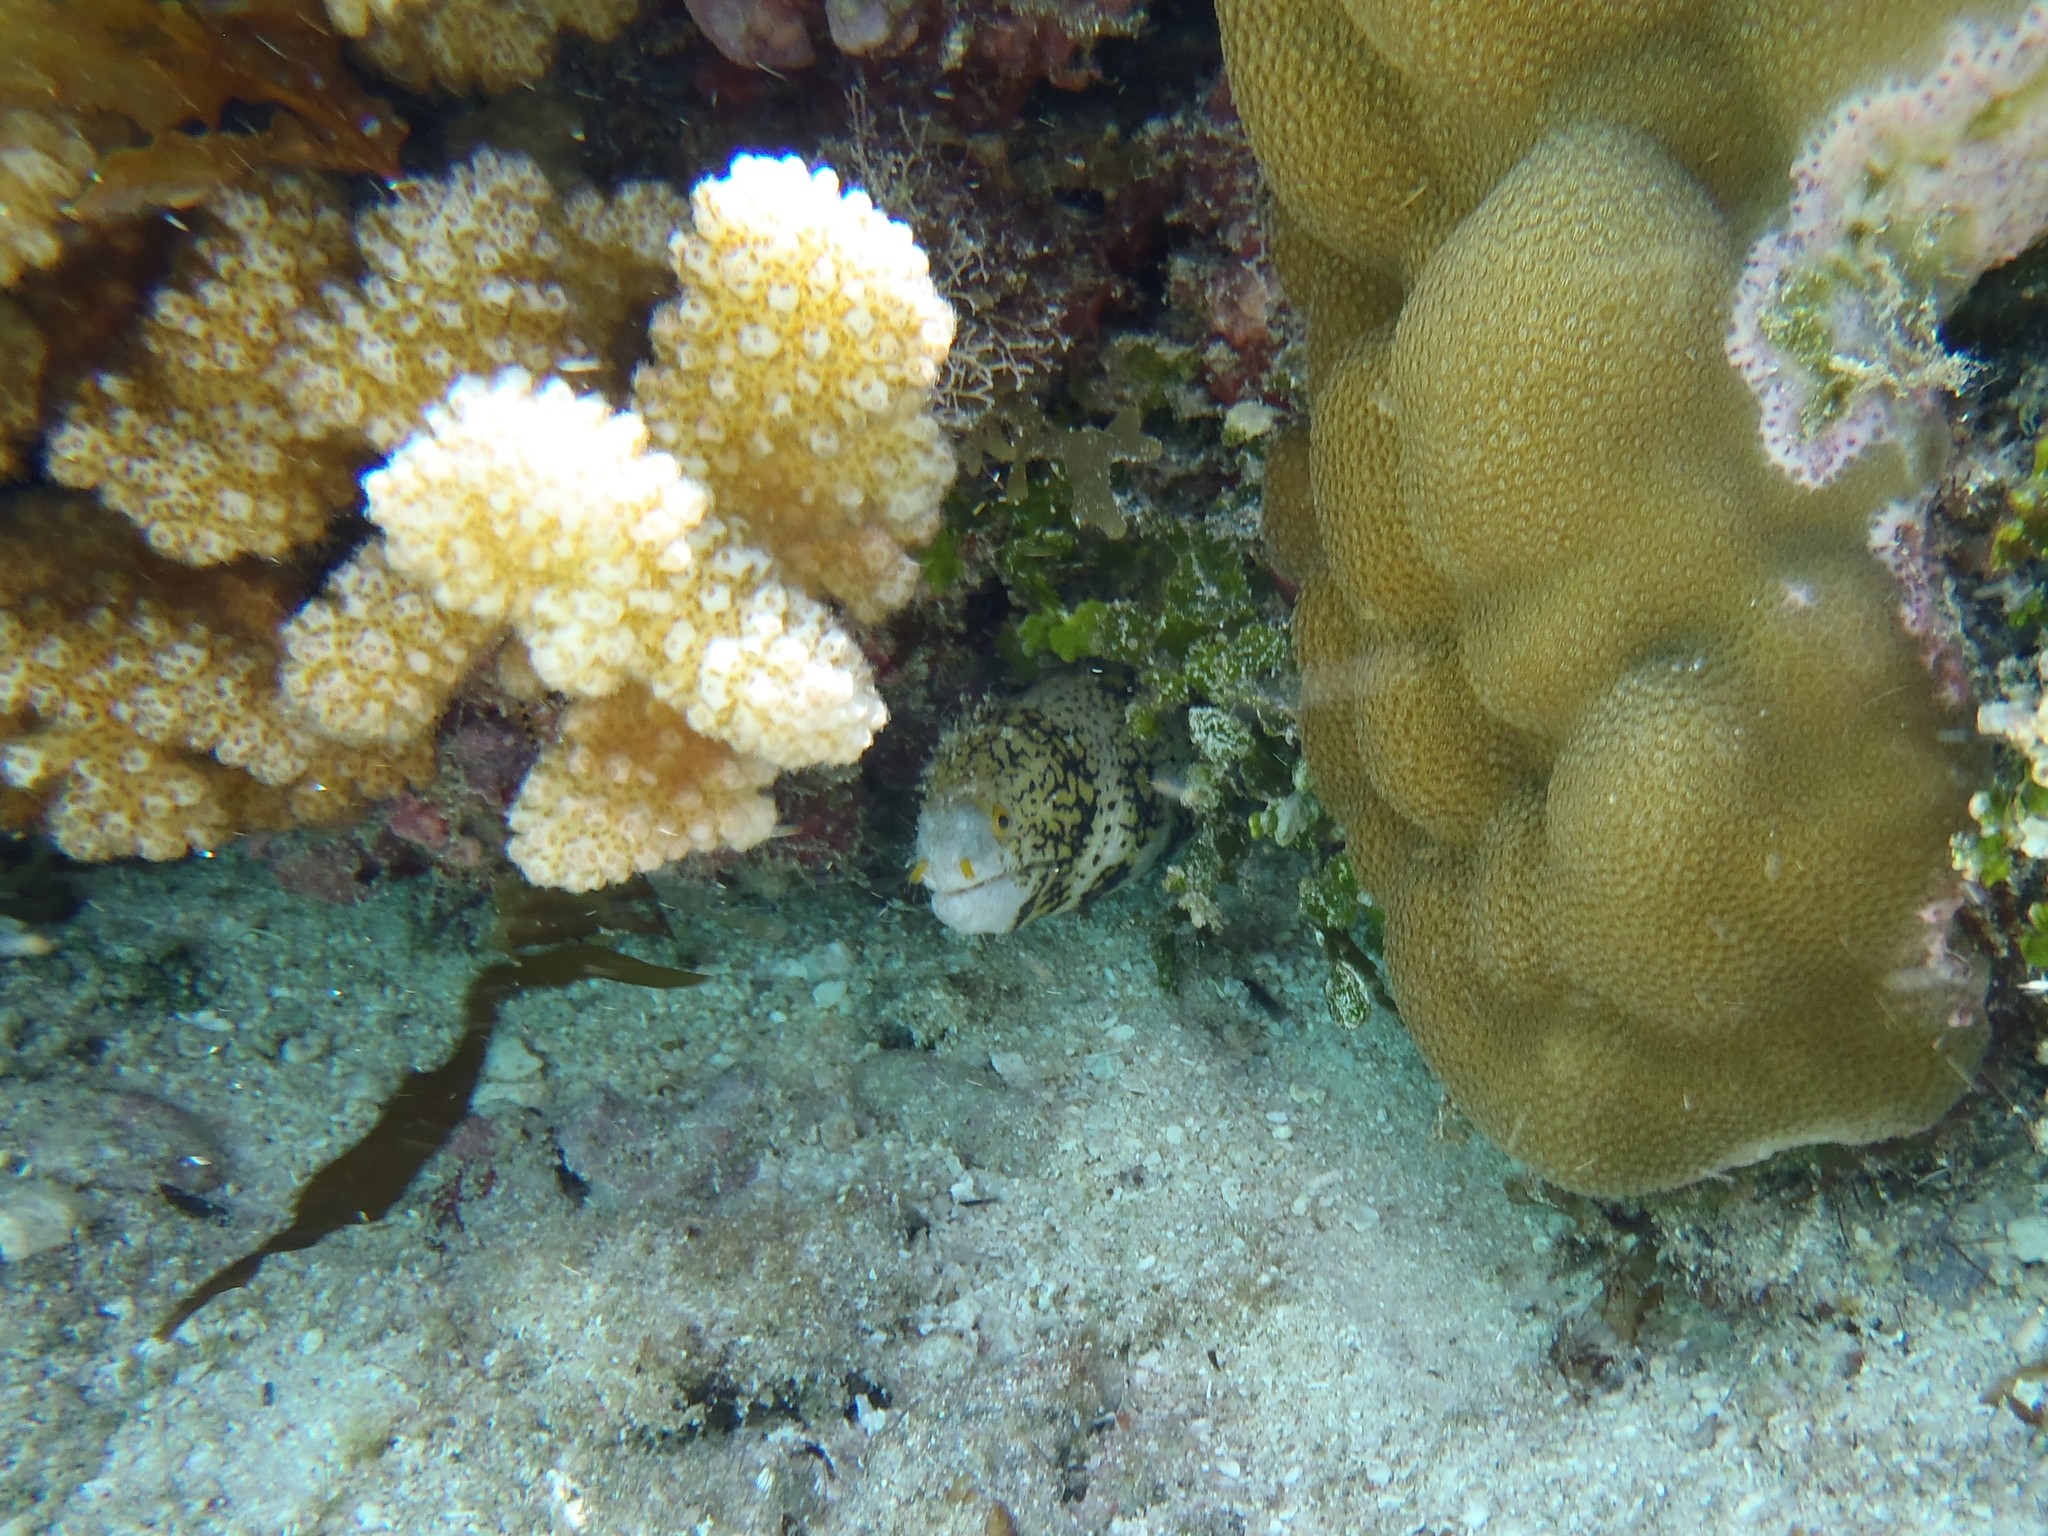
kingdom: Animalia
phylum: Chordata
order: Anguilliformes
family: Muraenidae
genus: Echidna
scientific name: Echidna nebulosa
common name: Snowflake moray
